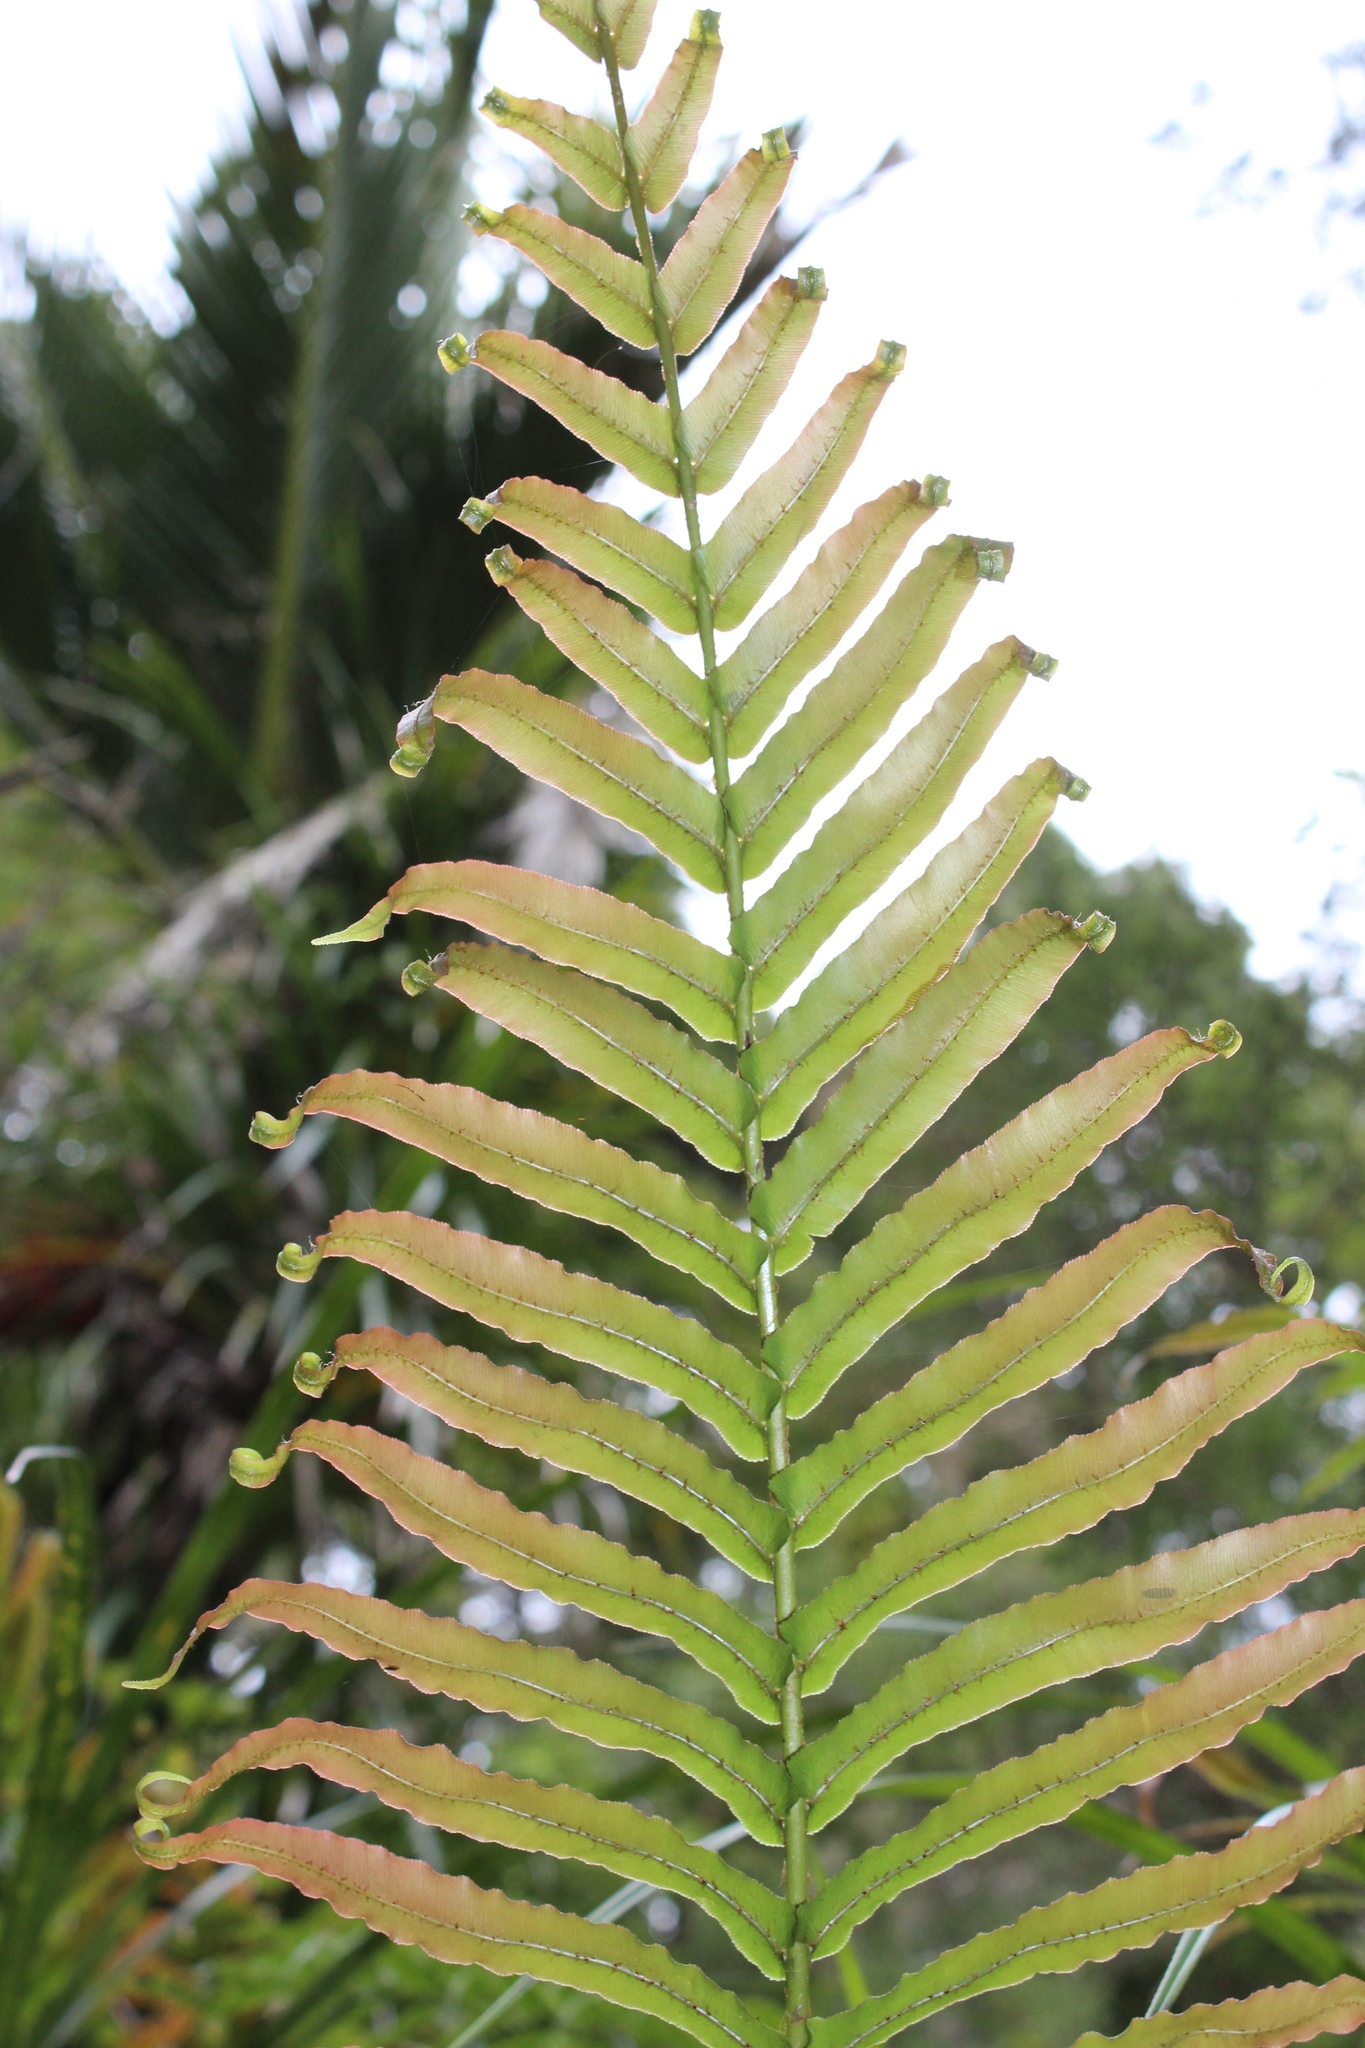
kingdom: Plantae
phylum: Tracheophyta
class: Polypodiopsida
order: Polypodiales
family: Blechnaceae
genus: Parablechnum
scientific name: Parablechnum novae-zelandiae
